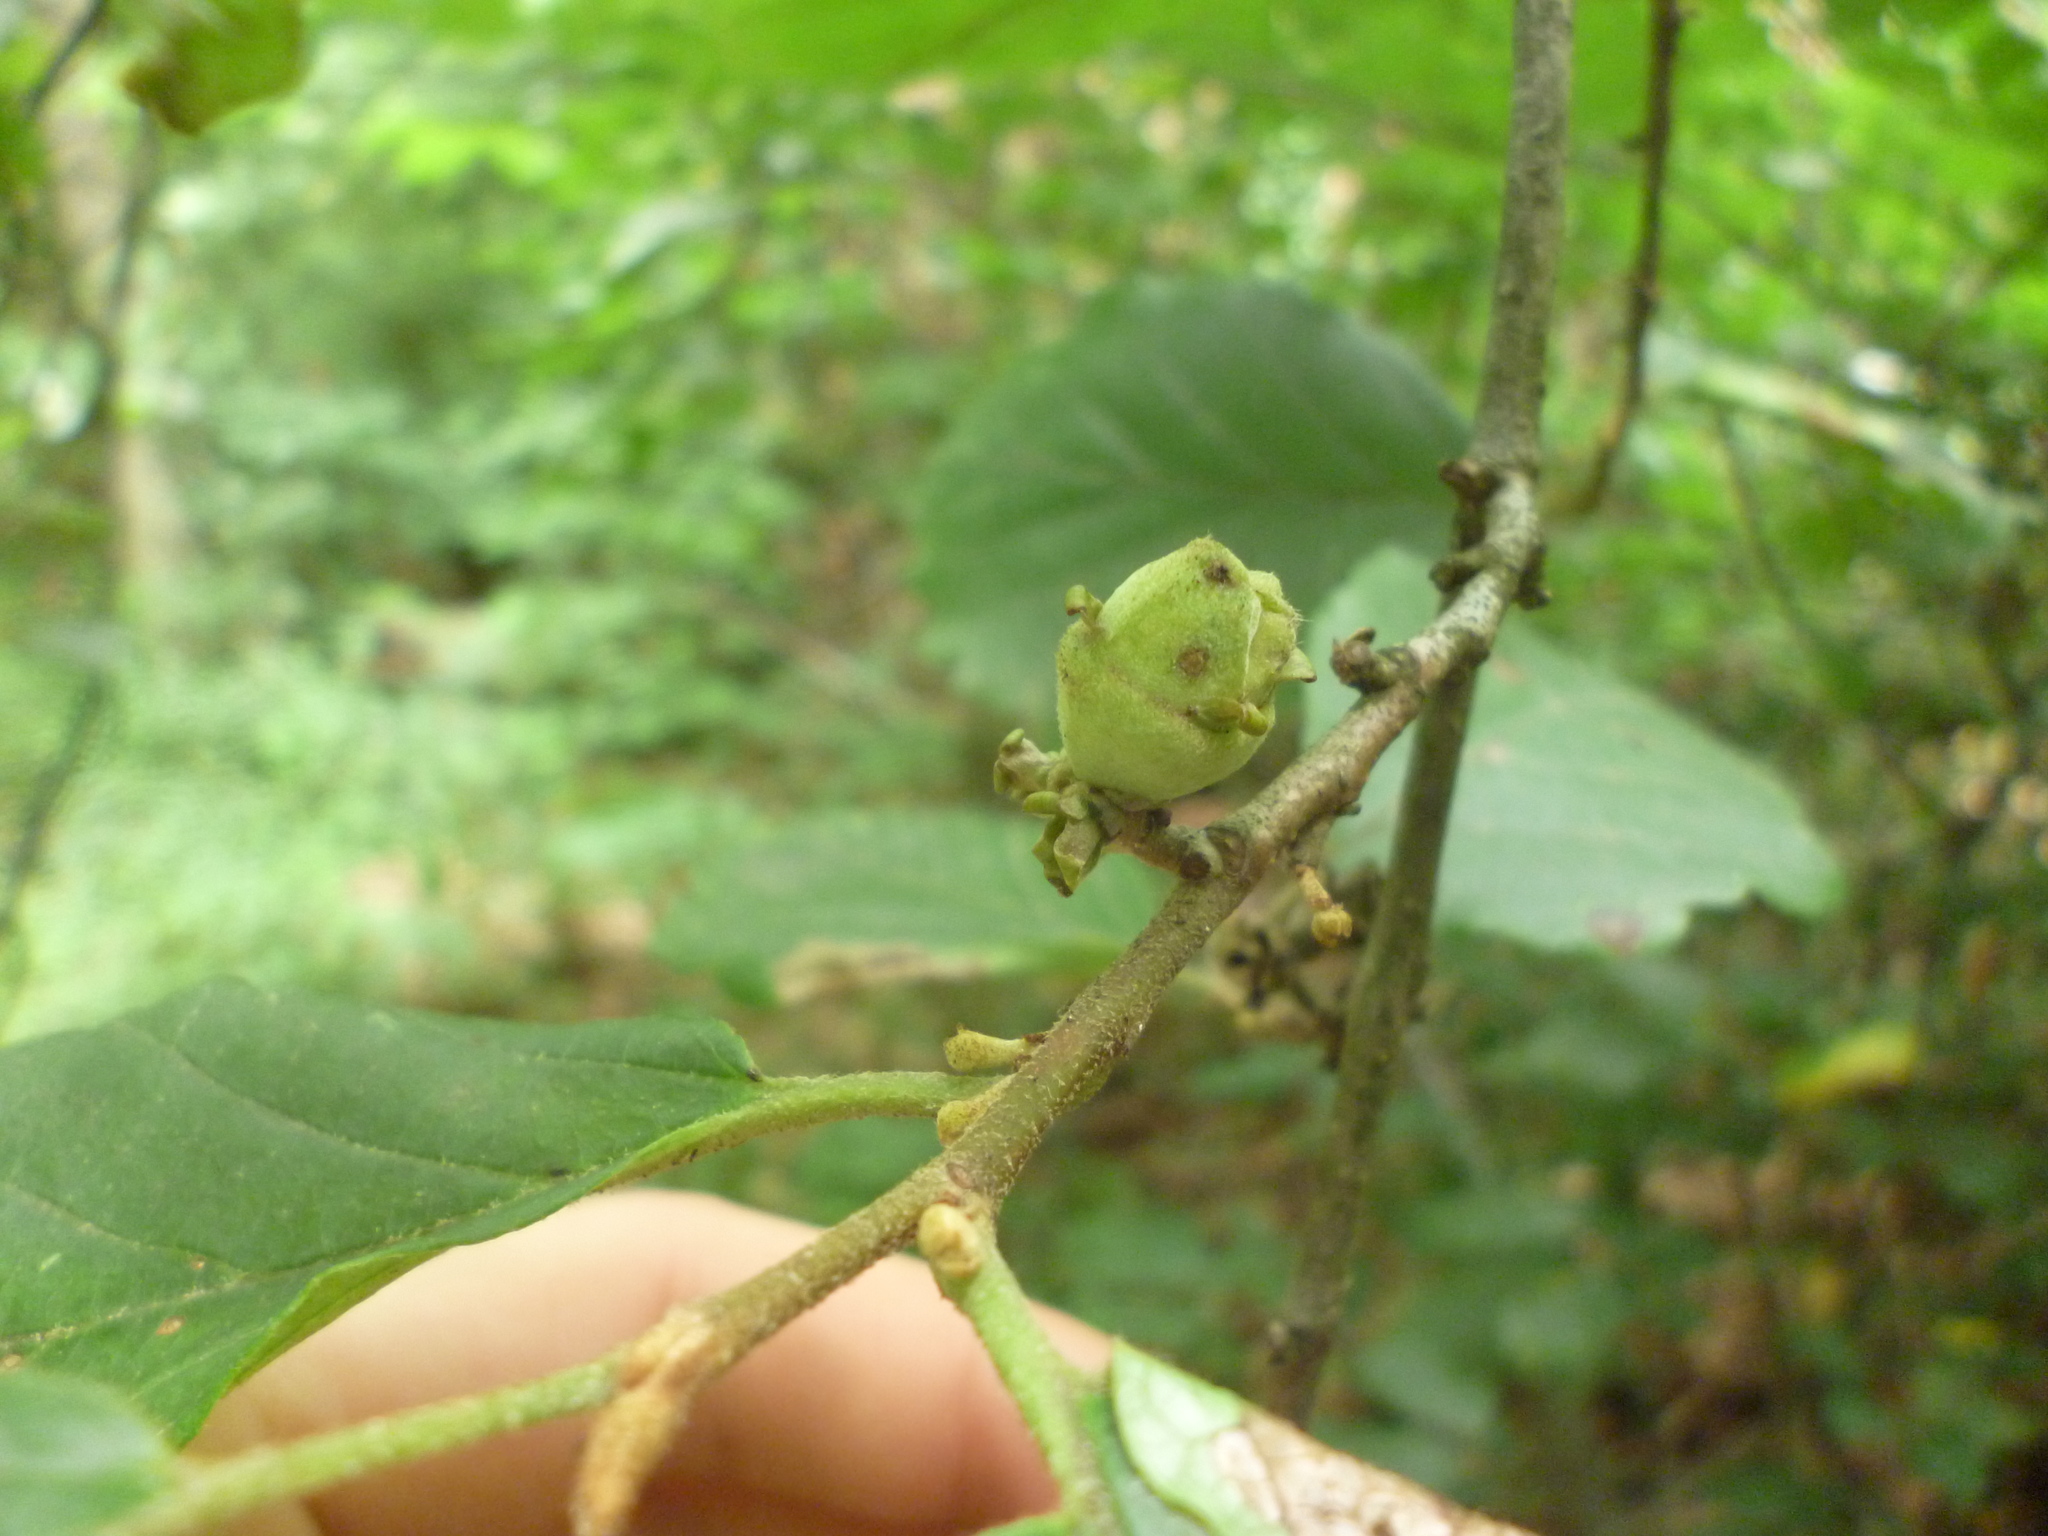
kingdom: Plantae
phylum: Tracheophyta
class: Magnoliopsida
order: Saxifragales
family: Hamamelidaceae
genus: Hamamelis
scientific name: Hamamelis virginiana
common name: Witch-hazel
